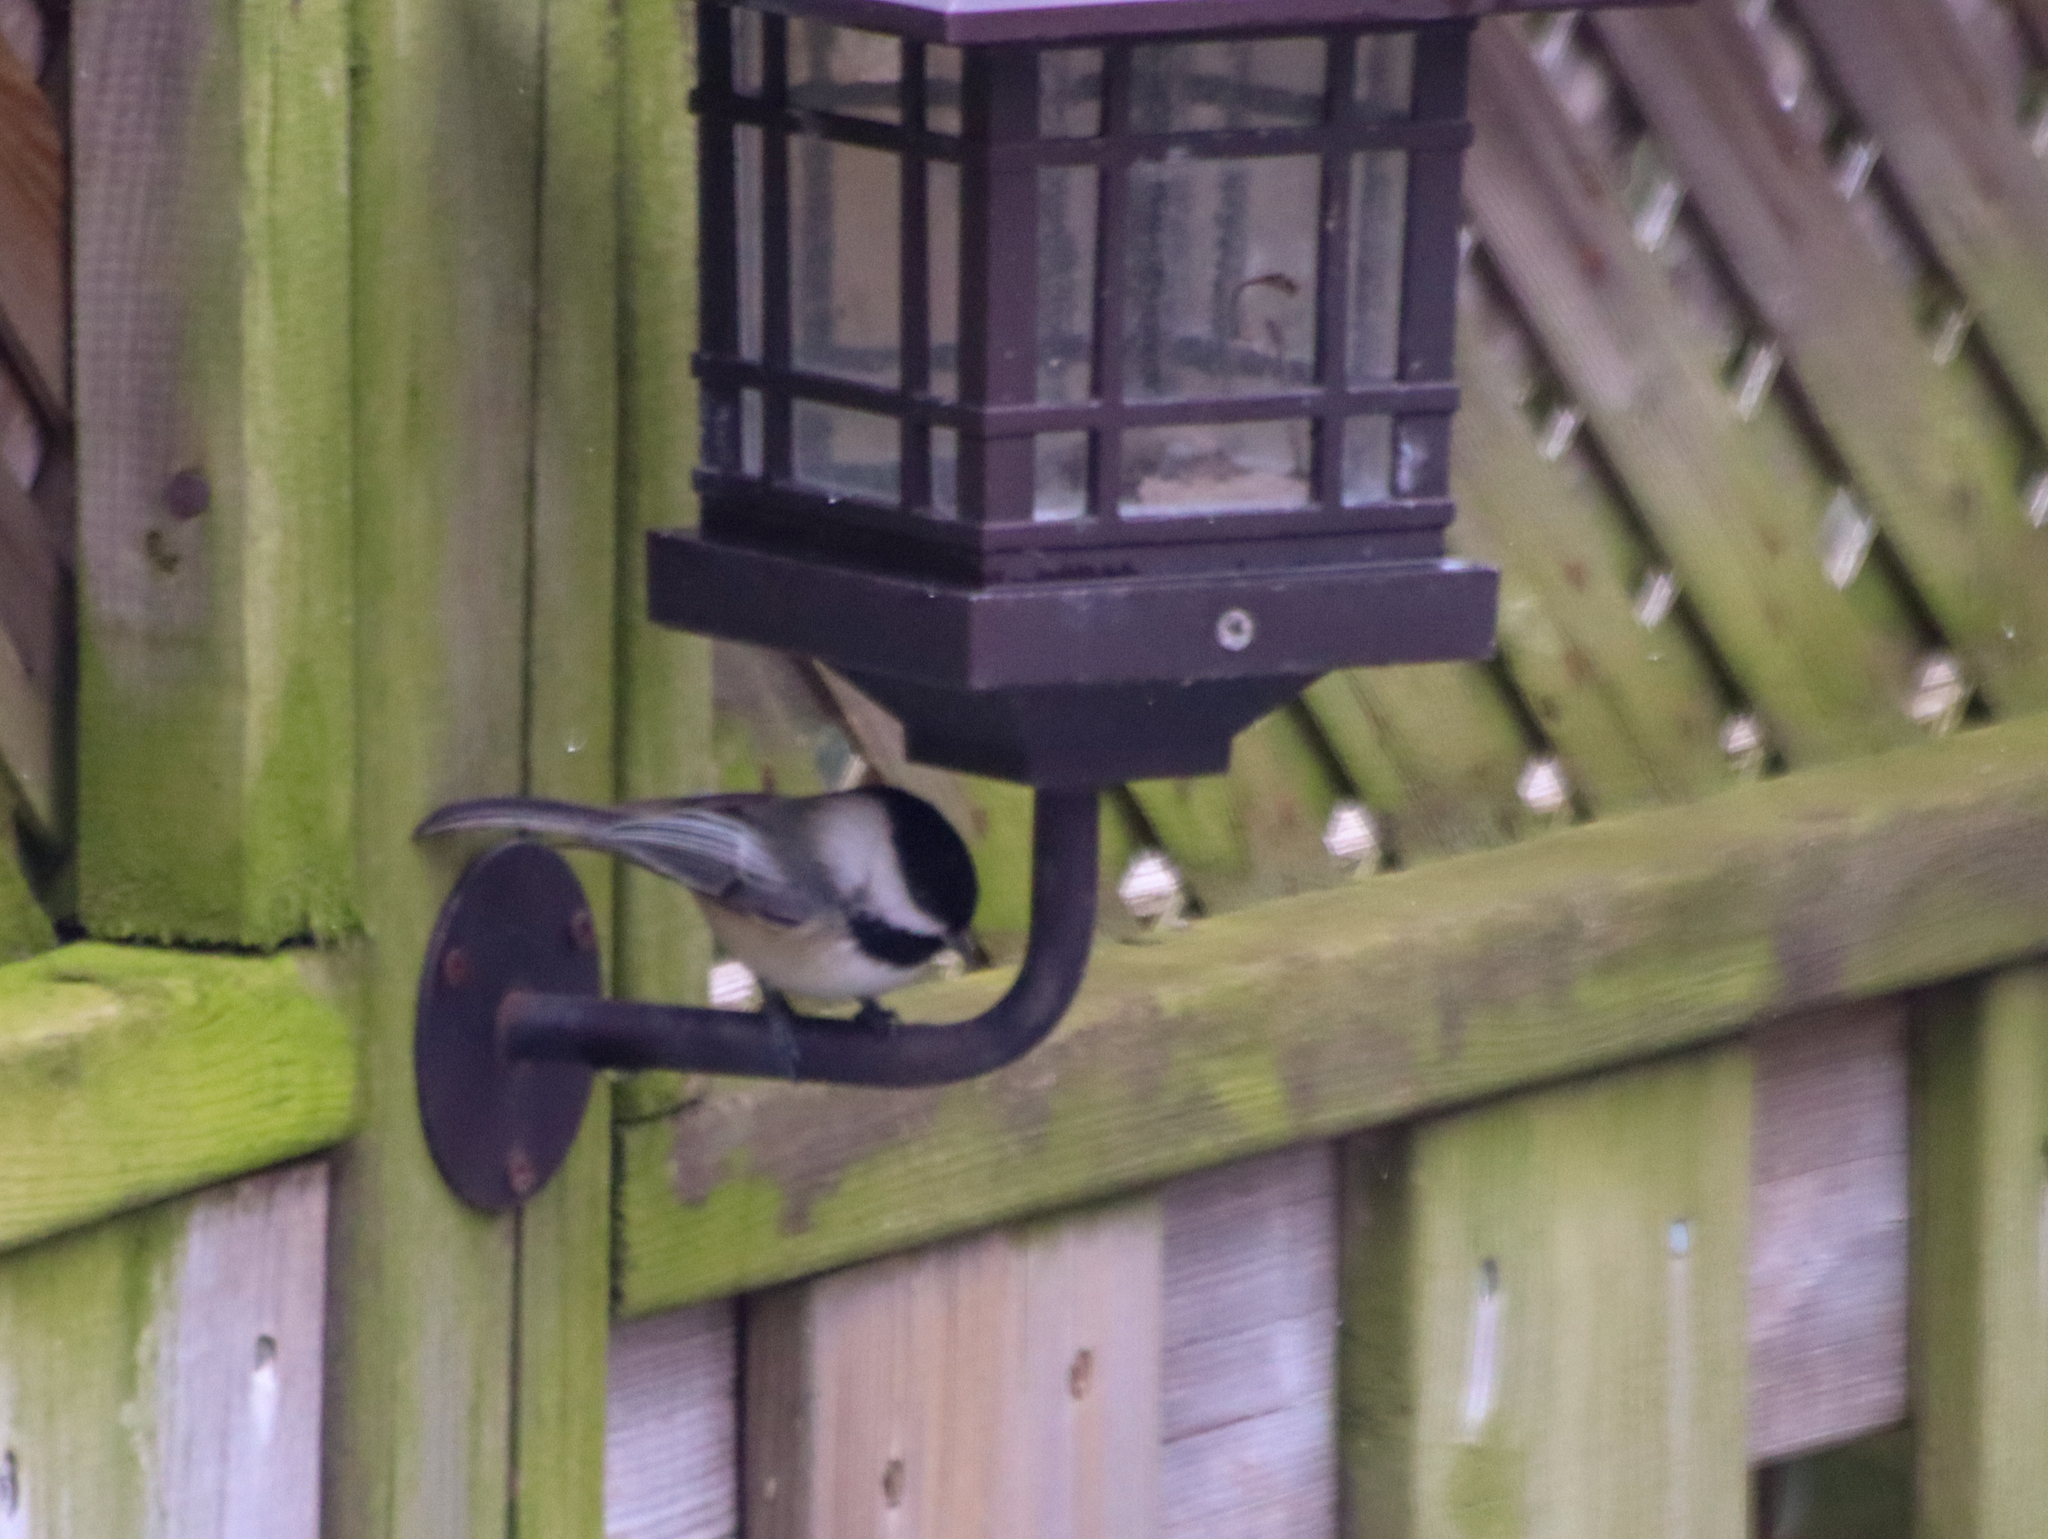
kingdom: Animalia
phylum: Chordata
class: Aves
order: Passeriformes
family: Paridae
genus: Poecile
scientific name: Poecile atricapillus
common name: Black-capped chickadee
